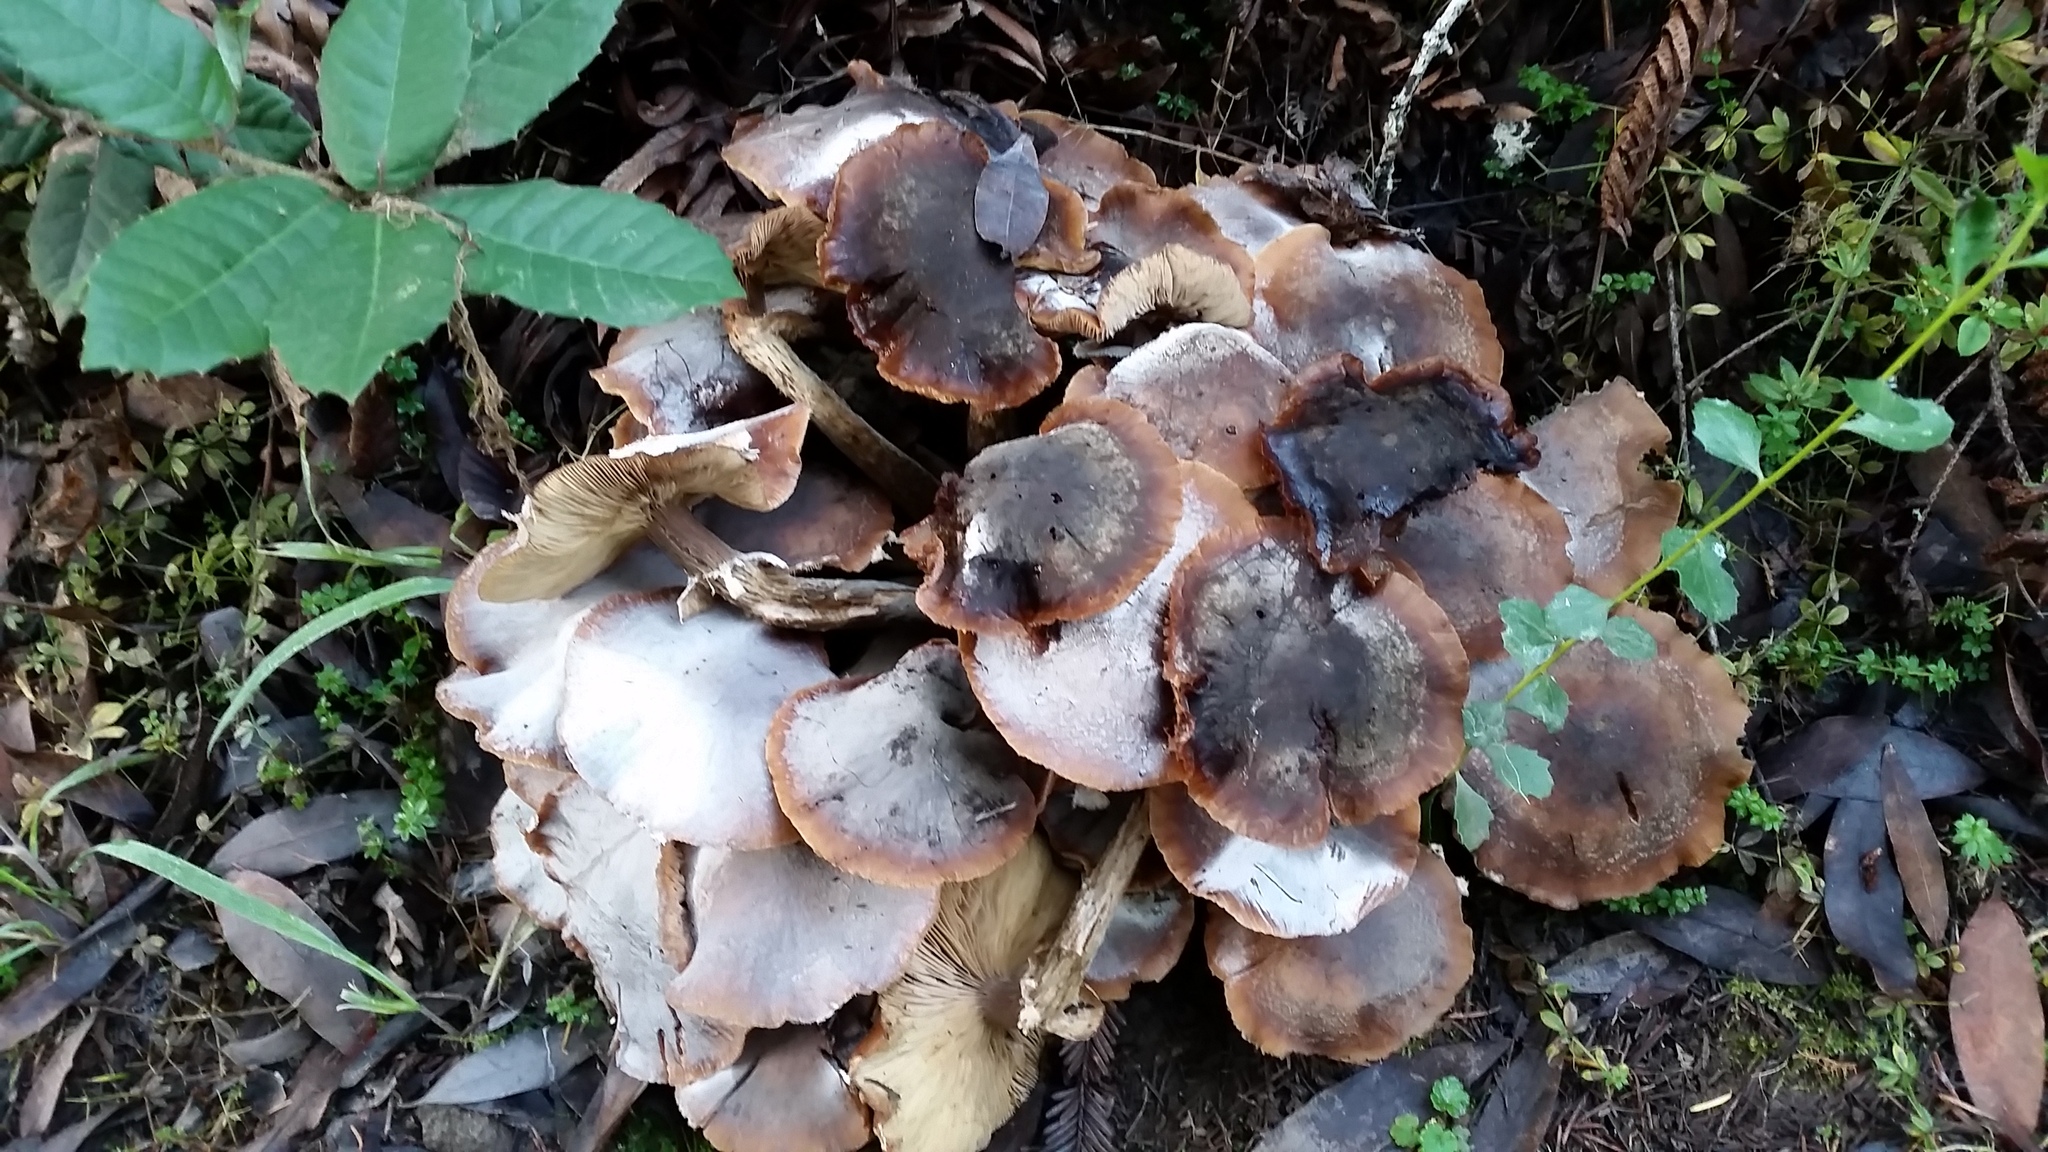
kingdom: Fungi
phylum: Basidiomycota
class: Agaricomycetes
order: Agaricales
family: Physalacriaceae
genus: Armillaria
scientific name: Armillaria mellea
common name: Honey fungus
